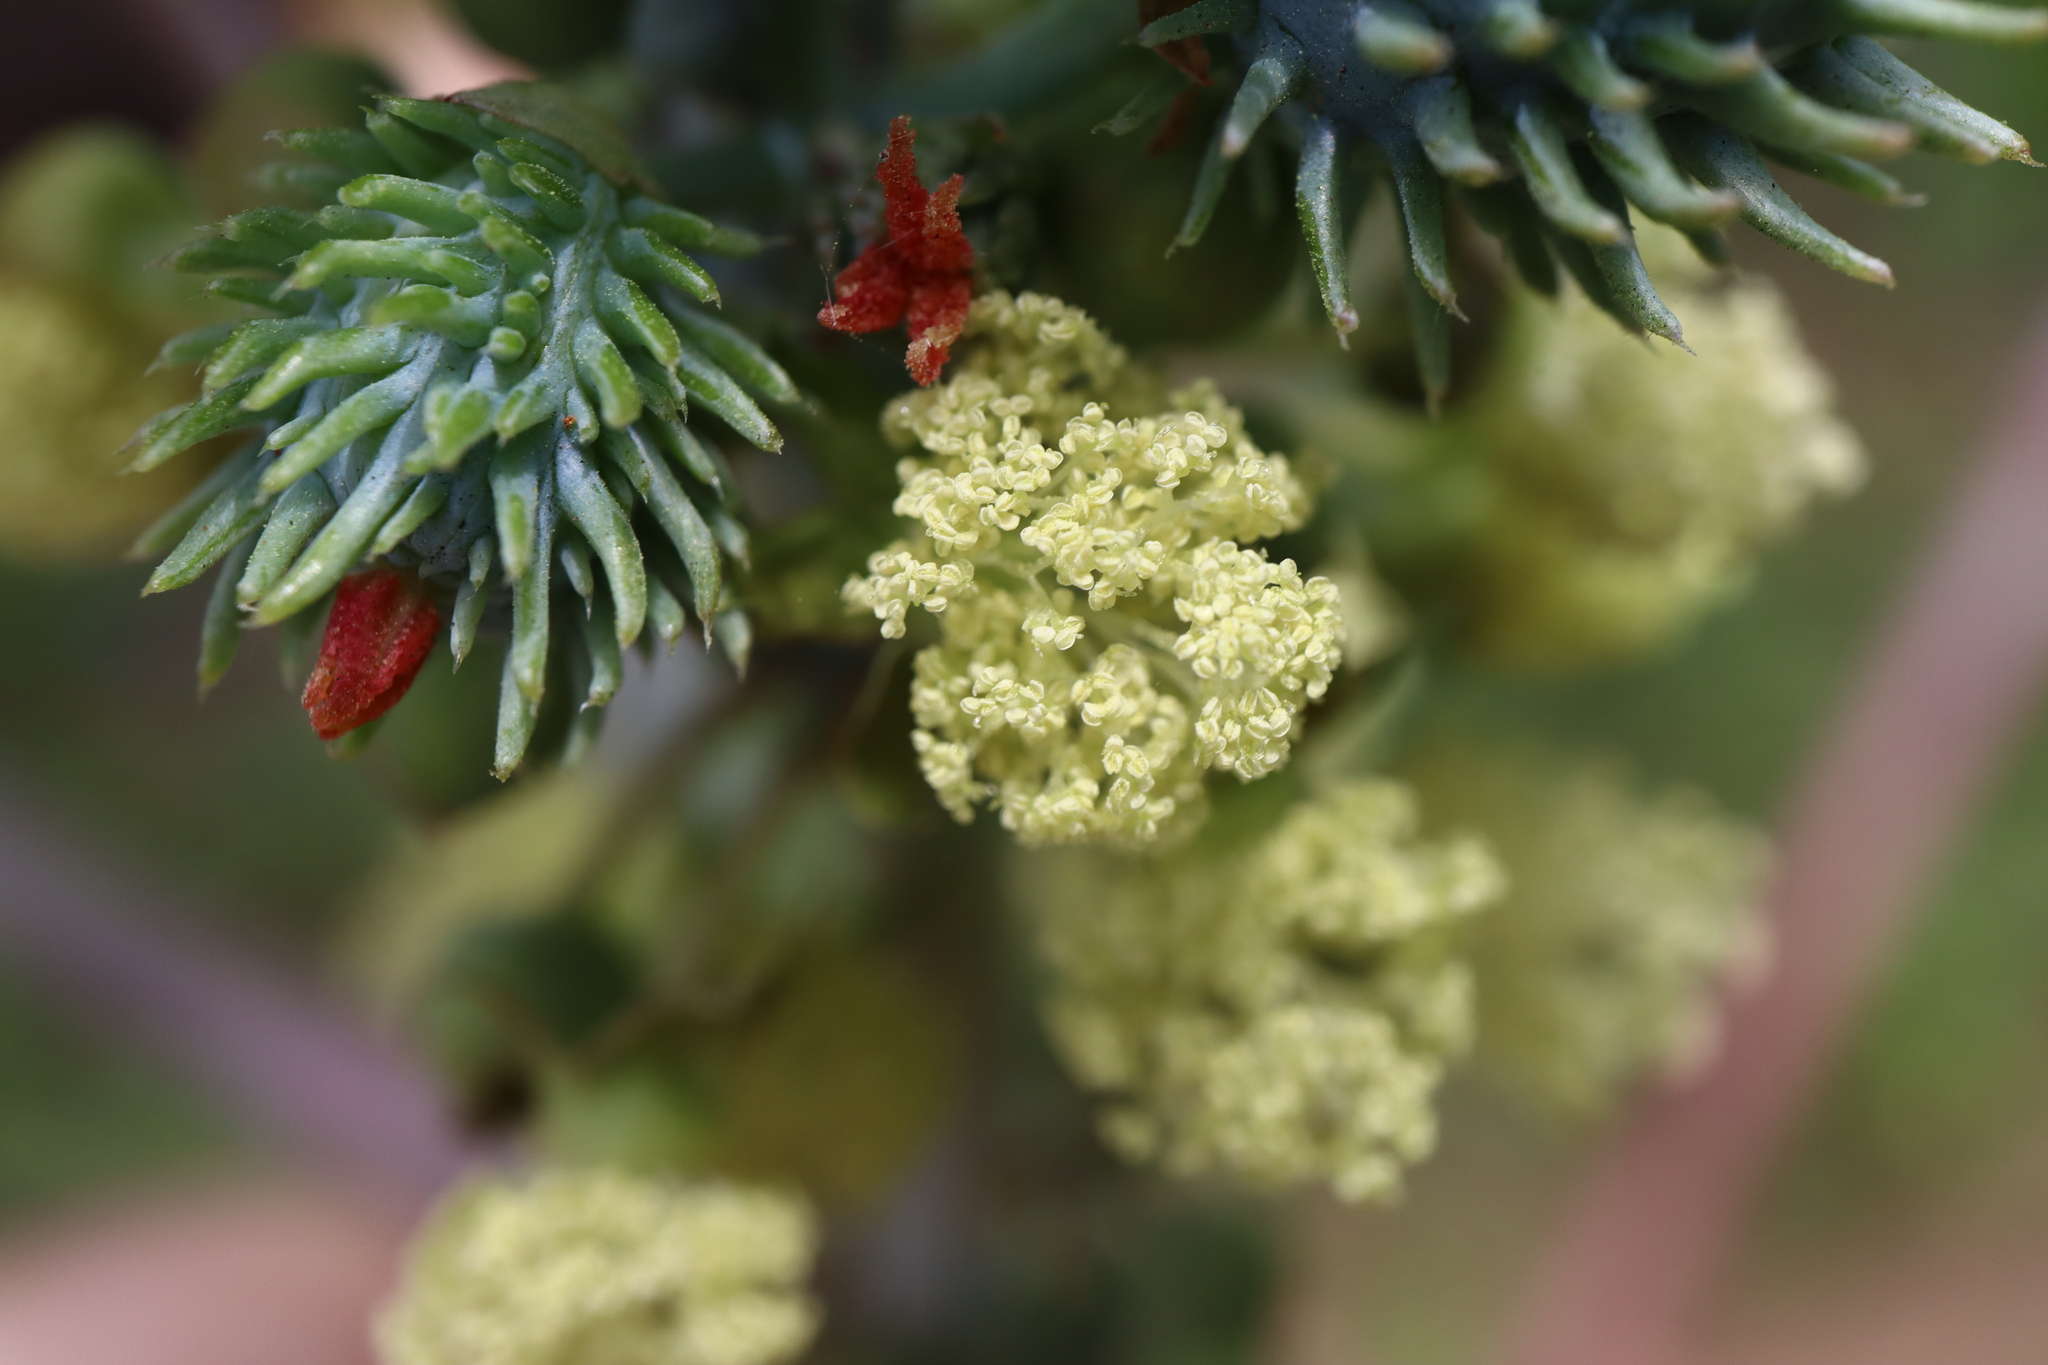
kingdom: Plantae
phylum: Tracheophyta
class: Magnoliopsida
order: Malpighiales
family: Euphorbiaceae
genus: Ricinus
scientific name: Ricinus communis
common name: Castor-oil-plant
